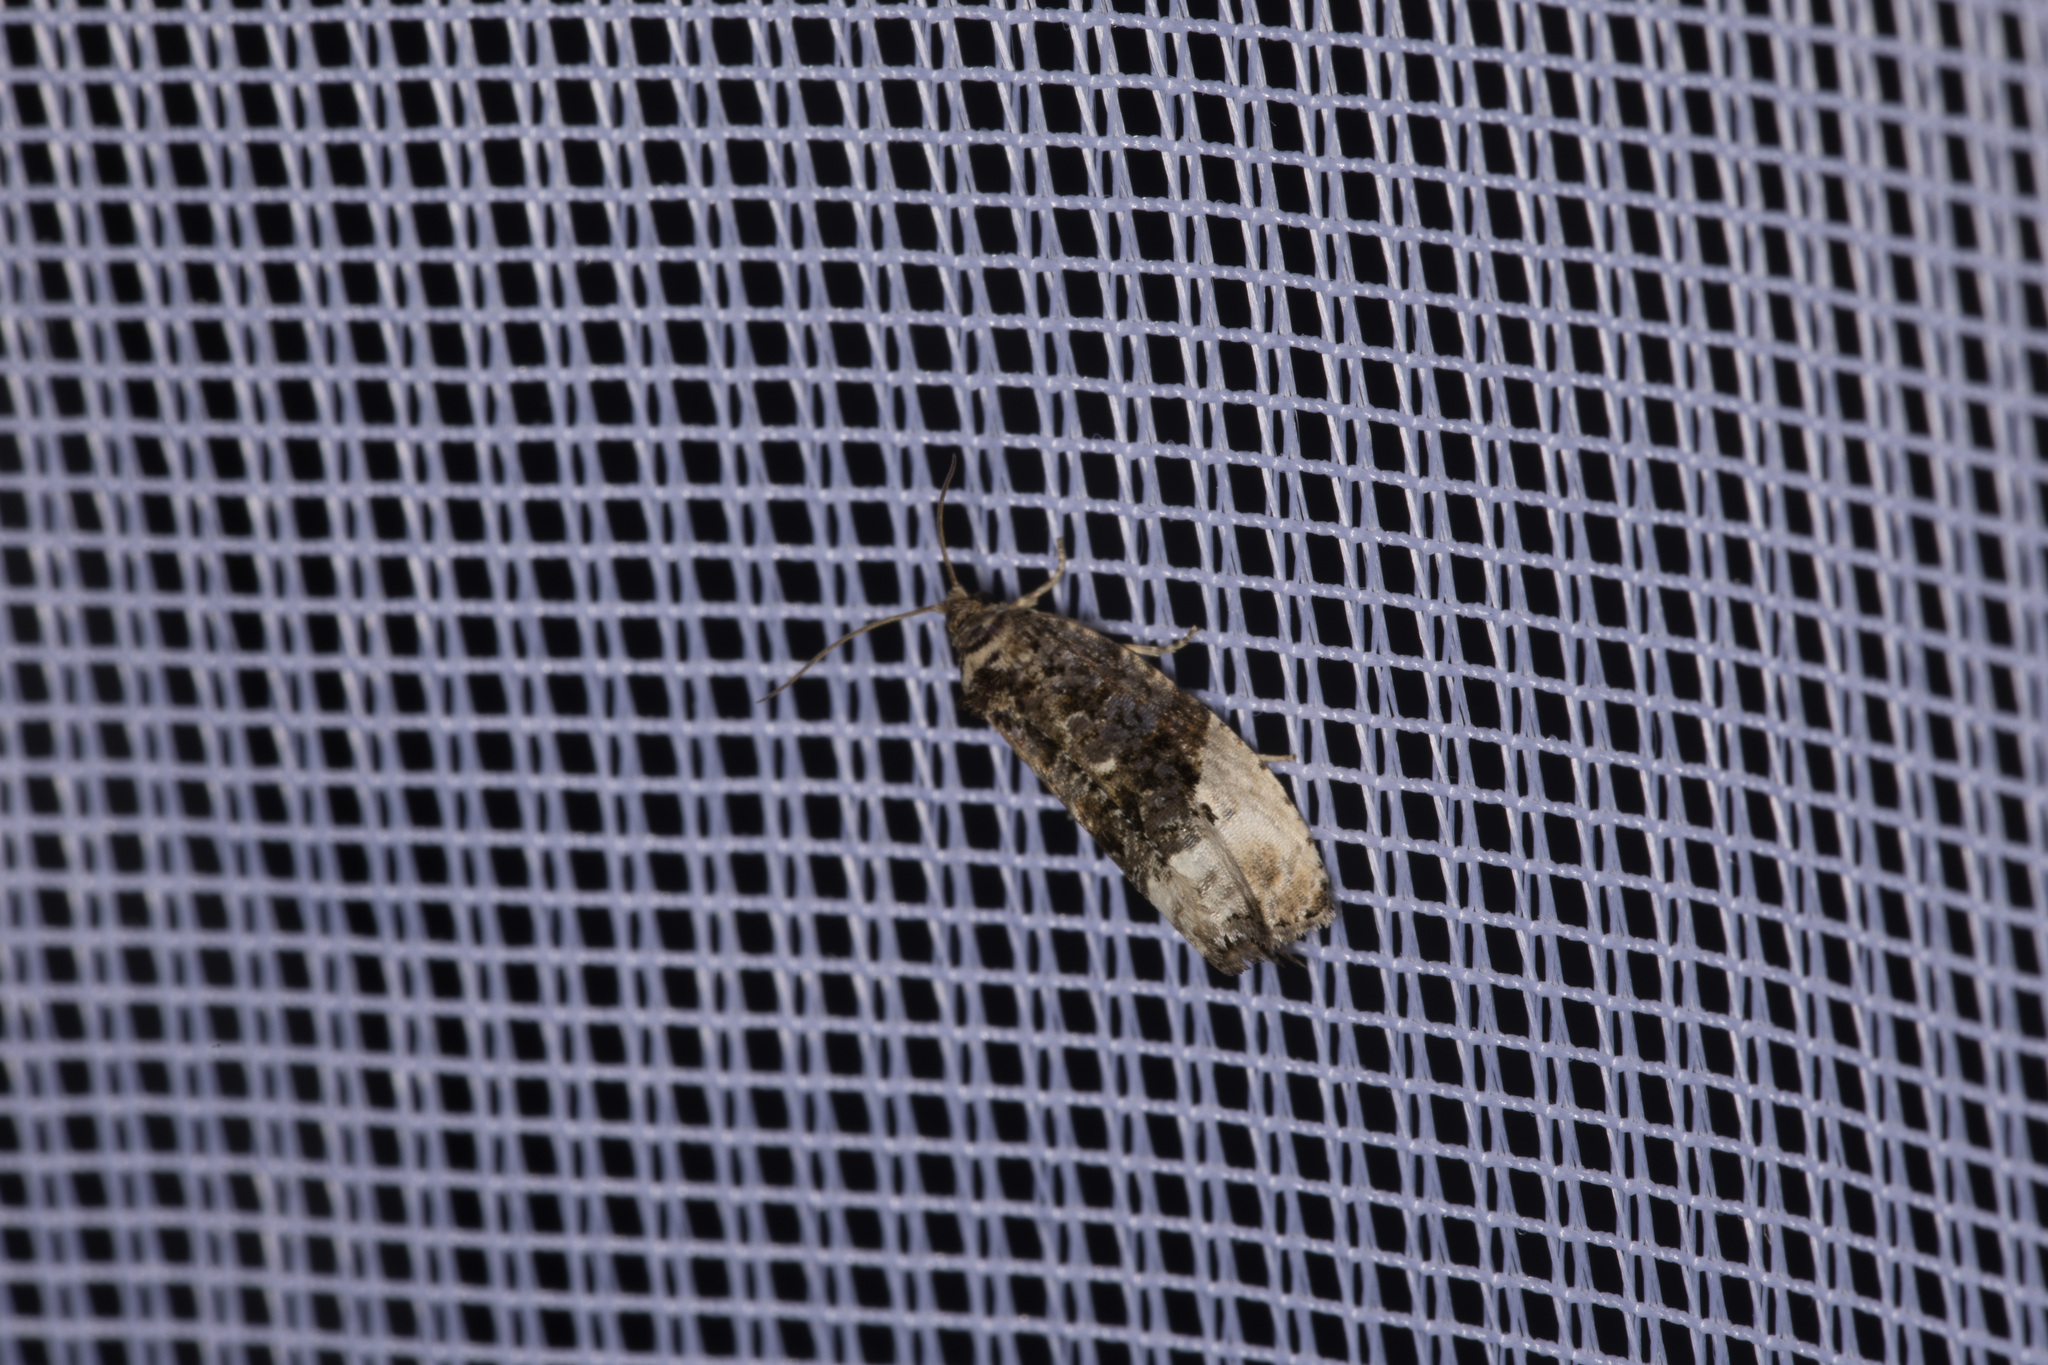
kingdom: Animalia
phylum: Arthropoda
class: Insecta
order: Lepidoptera
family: Tortricidae
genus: Hedya
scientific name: Hedya nubiferana
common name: Marbled orchard tortrix
